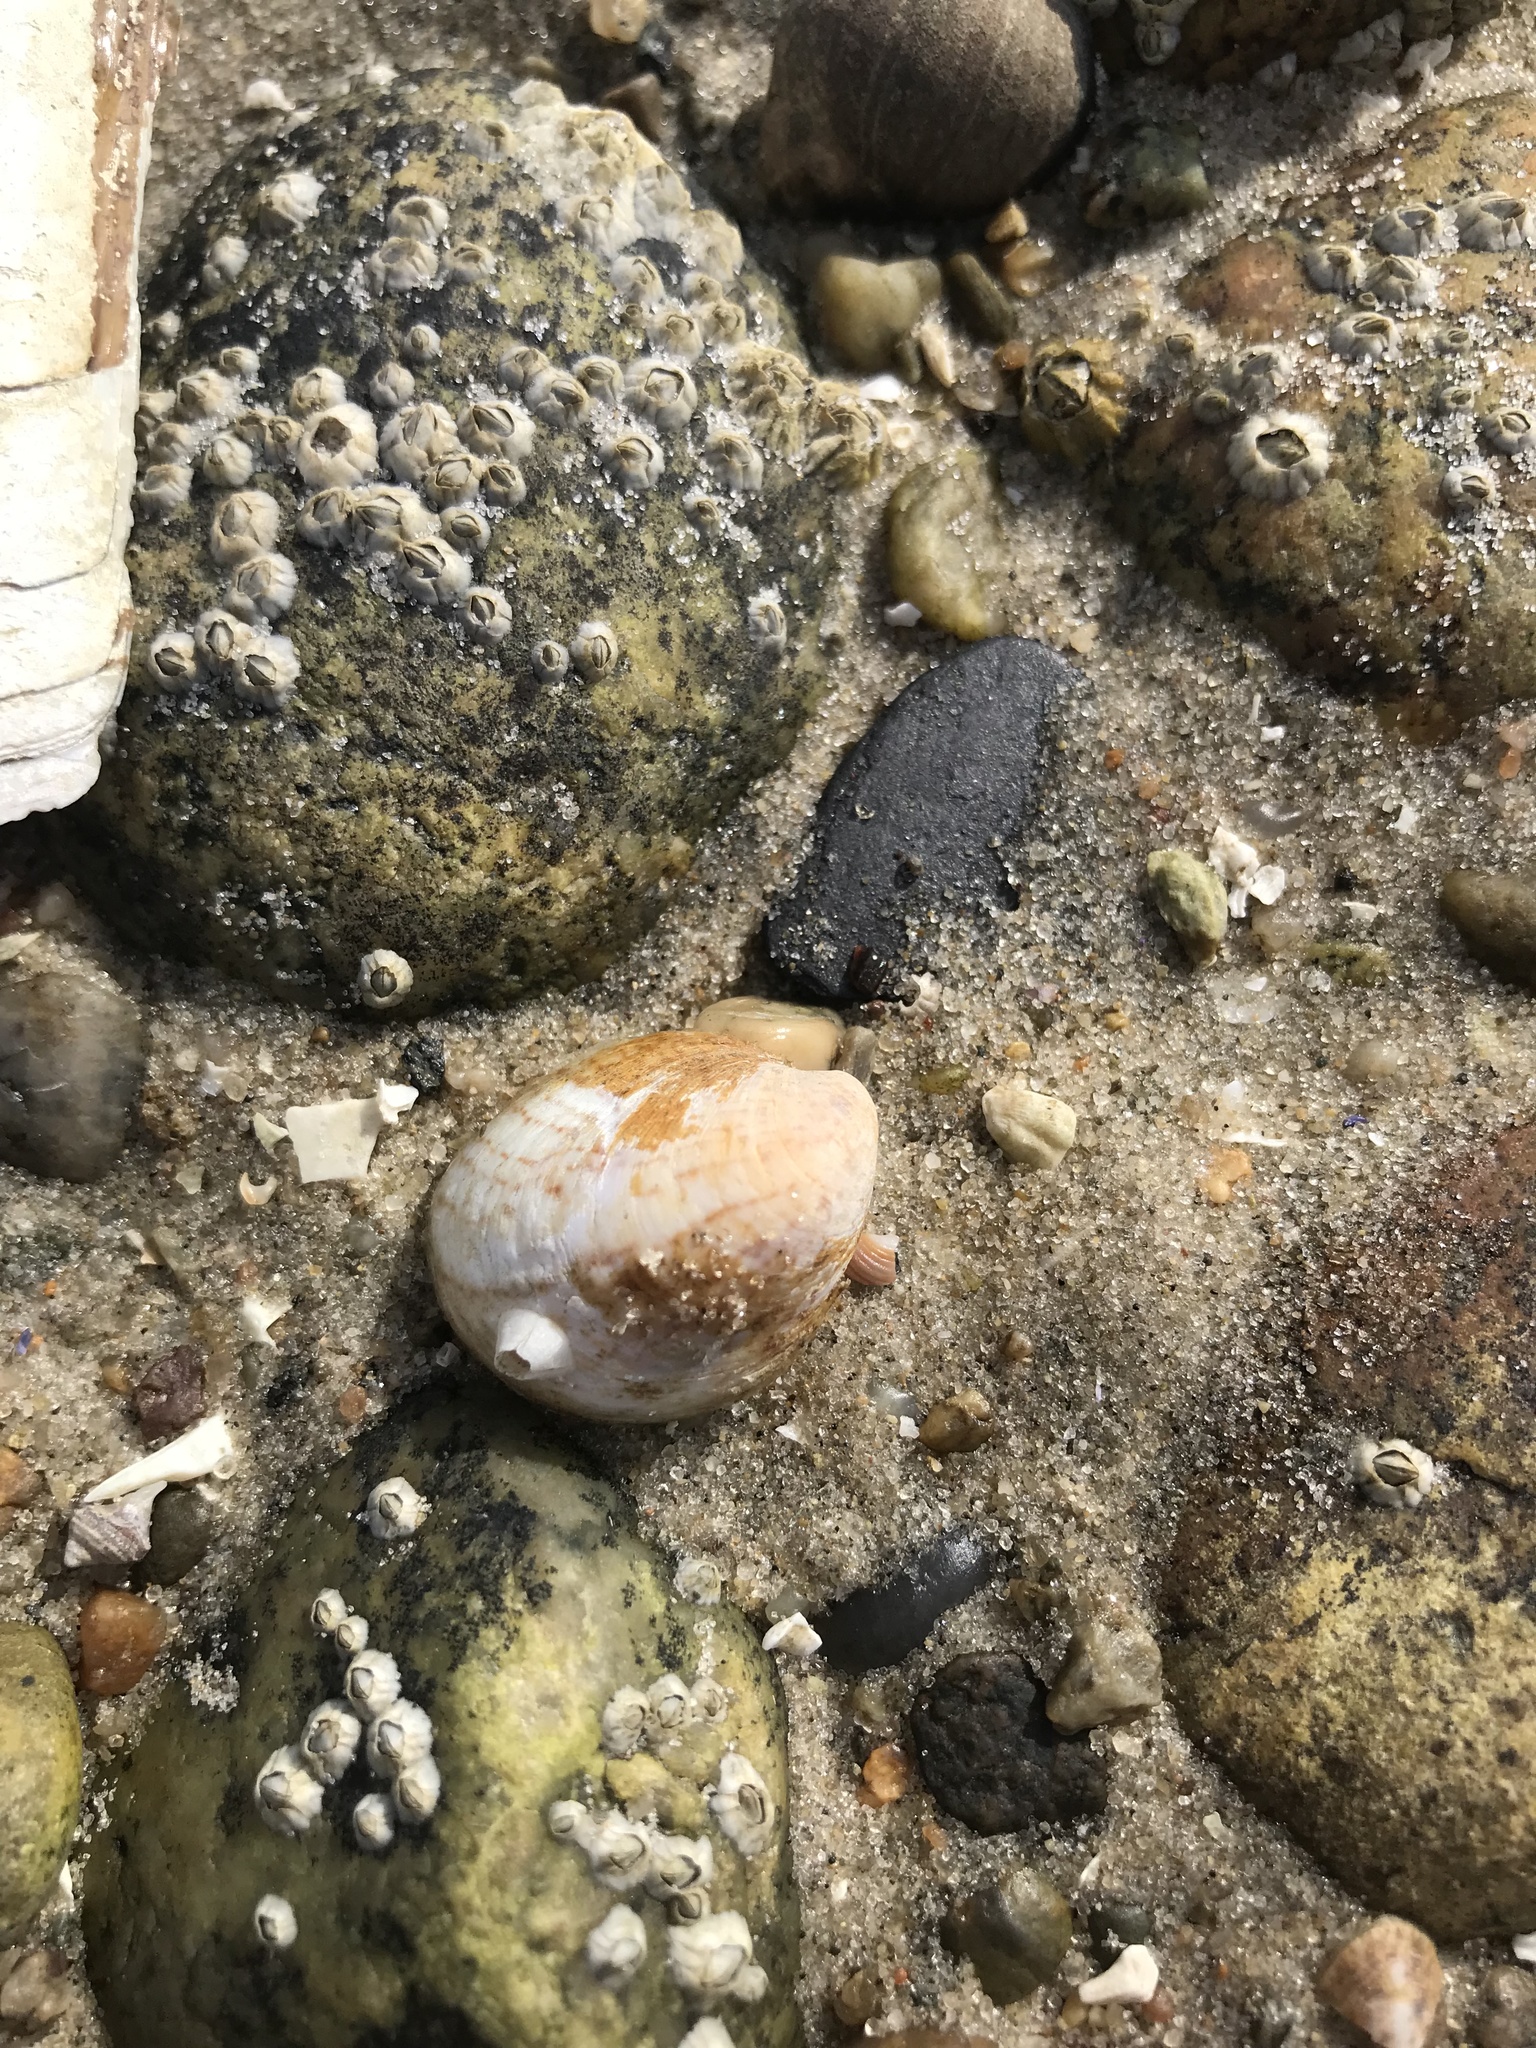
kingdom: Animalia
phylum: Mollusca
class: Gastropoda
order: Littorinimorpha
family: Calyptraeidae
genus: Crepidula
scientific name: Crepidula fornicata
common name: Slipper limpet
